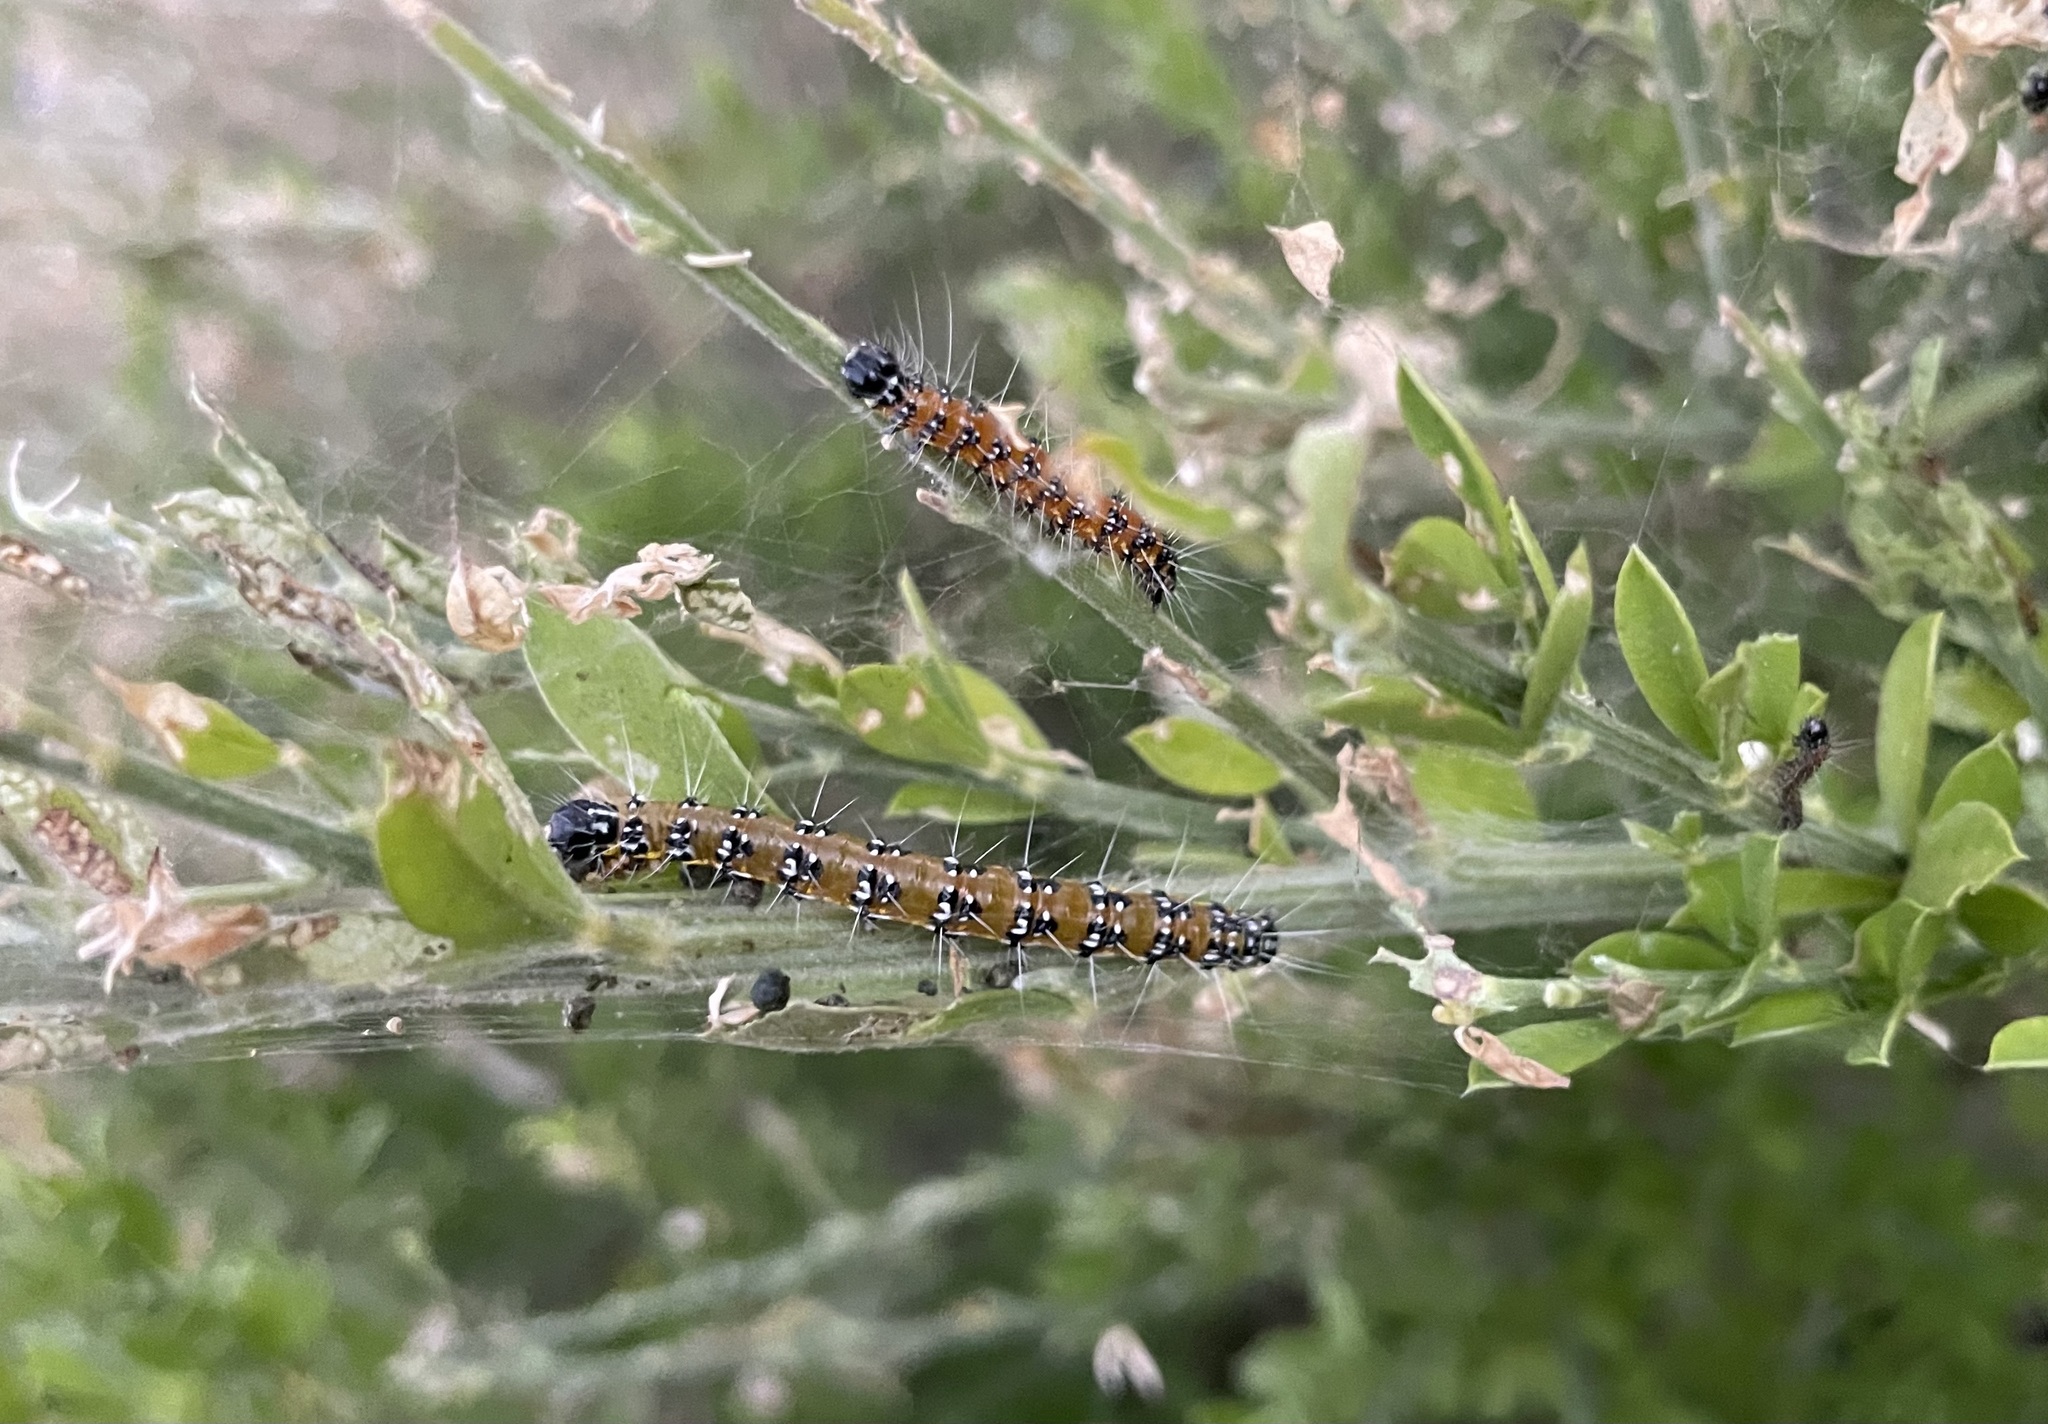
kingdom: Animalia
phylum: Arthropoda
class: Insecta
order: Lepidoptera
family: Crambidae
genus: Uresiphita
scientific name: Uresiphita reversalis
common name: Genista broom moth
